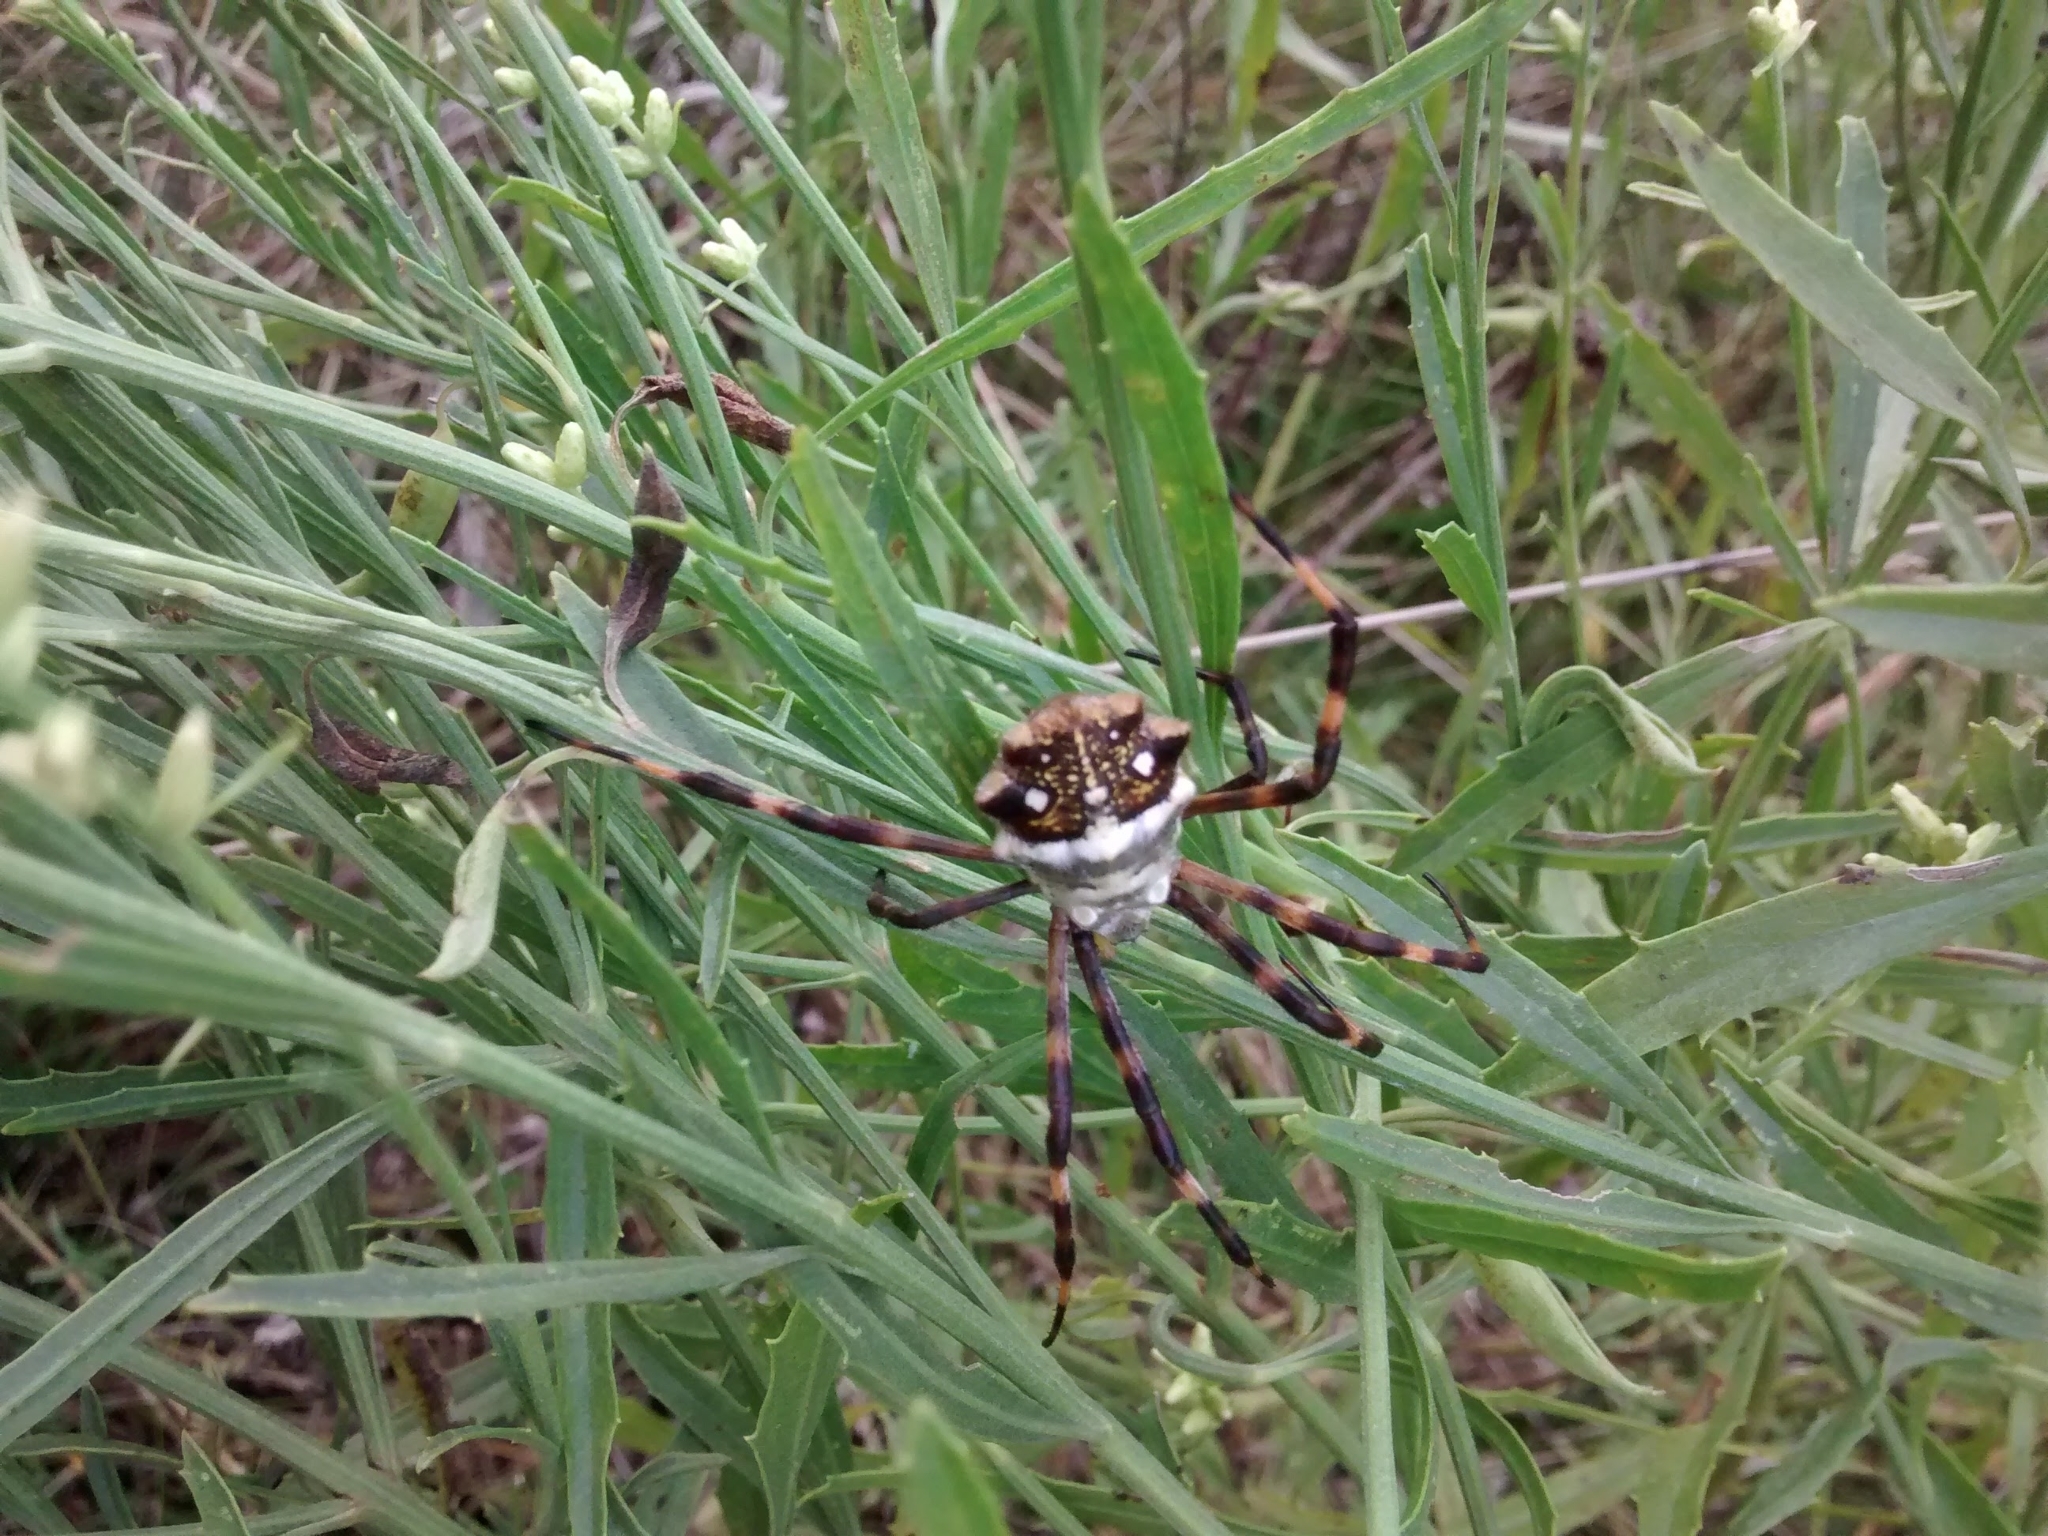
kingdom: Animalia
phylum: Arthropoda
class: Arachnida
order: Araneae
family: Araneidae
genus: Argiope
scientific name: Argiope argentata
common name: Orb weavers
